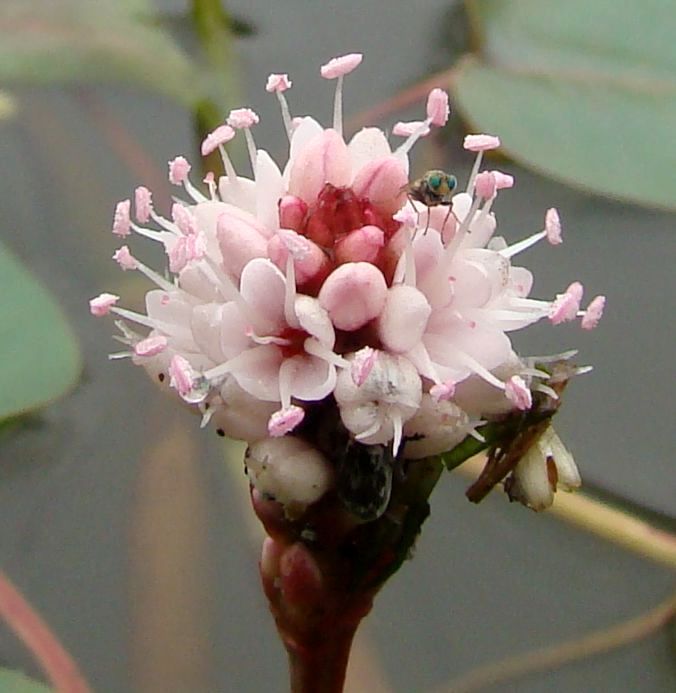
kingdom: Plantae
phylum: Tracheophyta
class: Magnoliopsida
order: Caryophyllales
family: Polygonaceae
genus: Persicaria
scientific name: Persicaria amphibia
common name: Amphibious bistort
